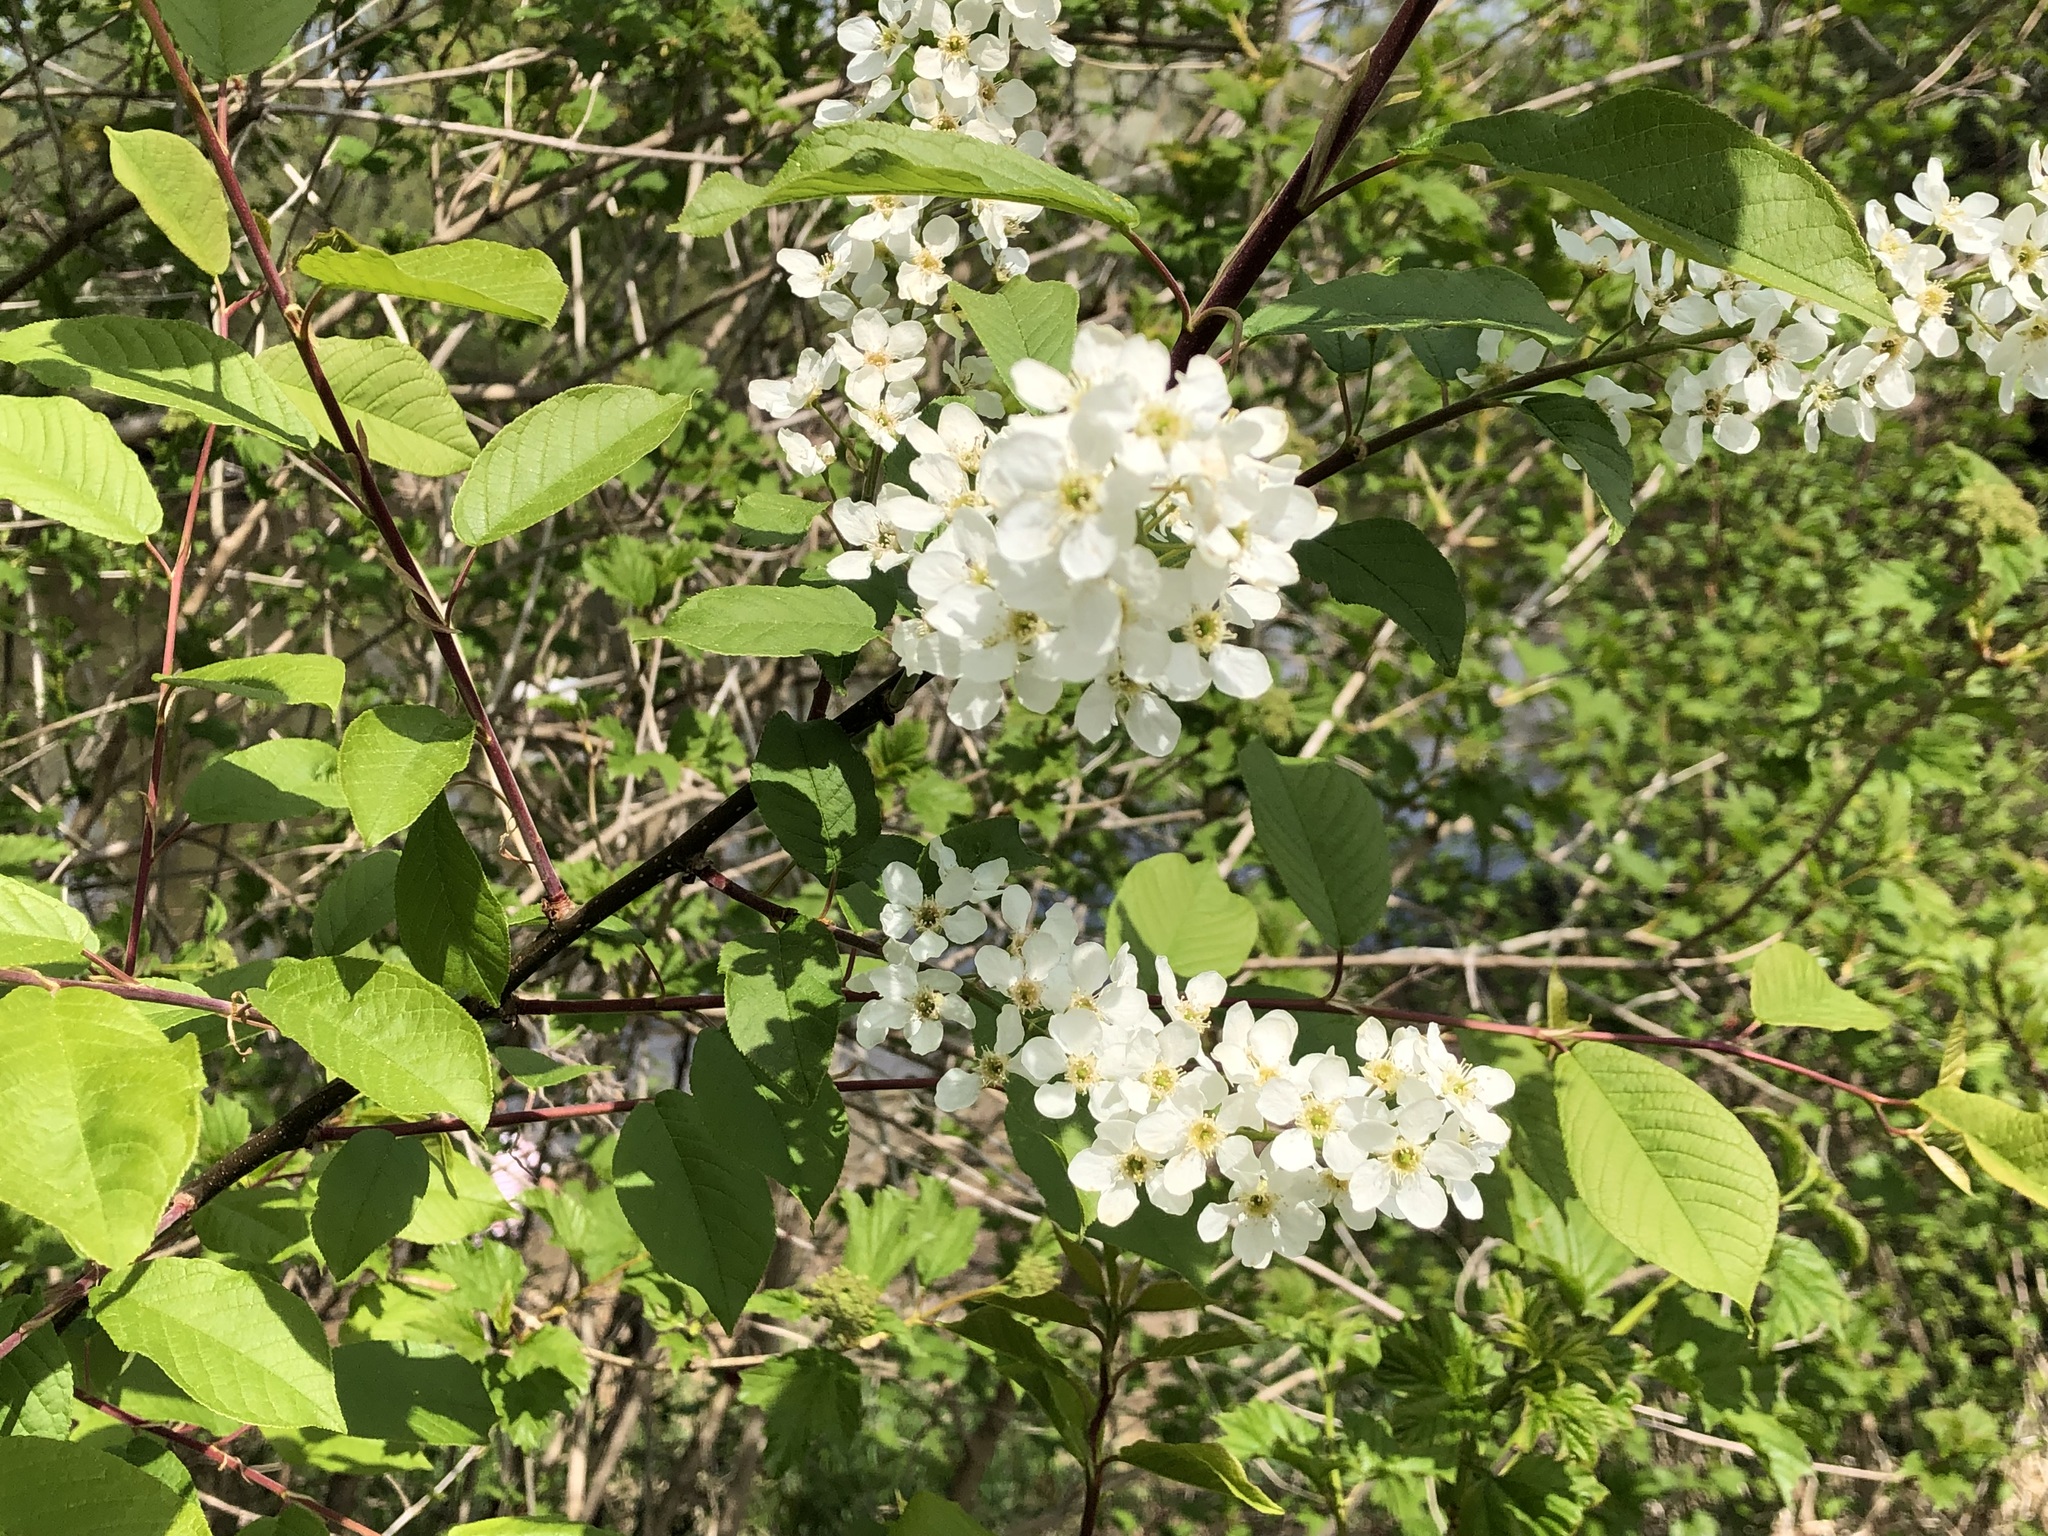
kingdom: Plantae
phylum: Tracheophyta
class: Magnoliopsida
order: Rosales
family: Rosaceae
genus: Prunus
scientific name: Prunus padus
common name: Bird cherry
